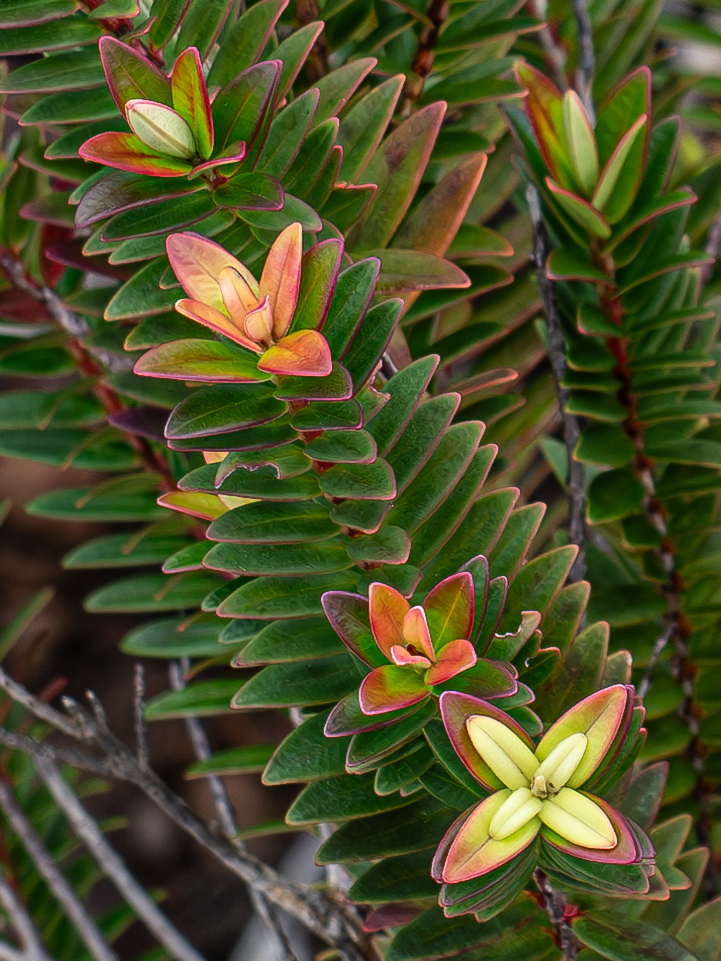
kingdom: Plantae
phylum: Tracheophyta
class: Magnoliopsida
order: Myrtales
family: Myrtaceae
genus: Metrosideros
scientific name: Metrosideros operculata
